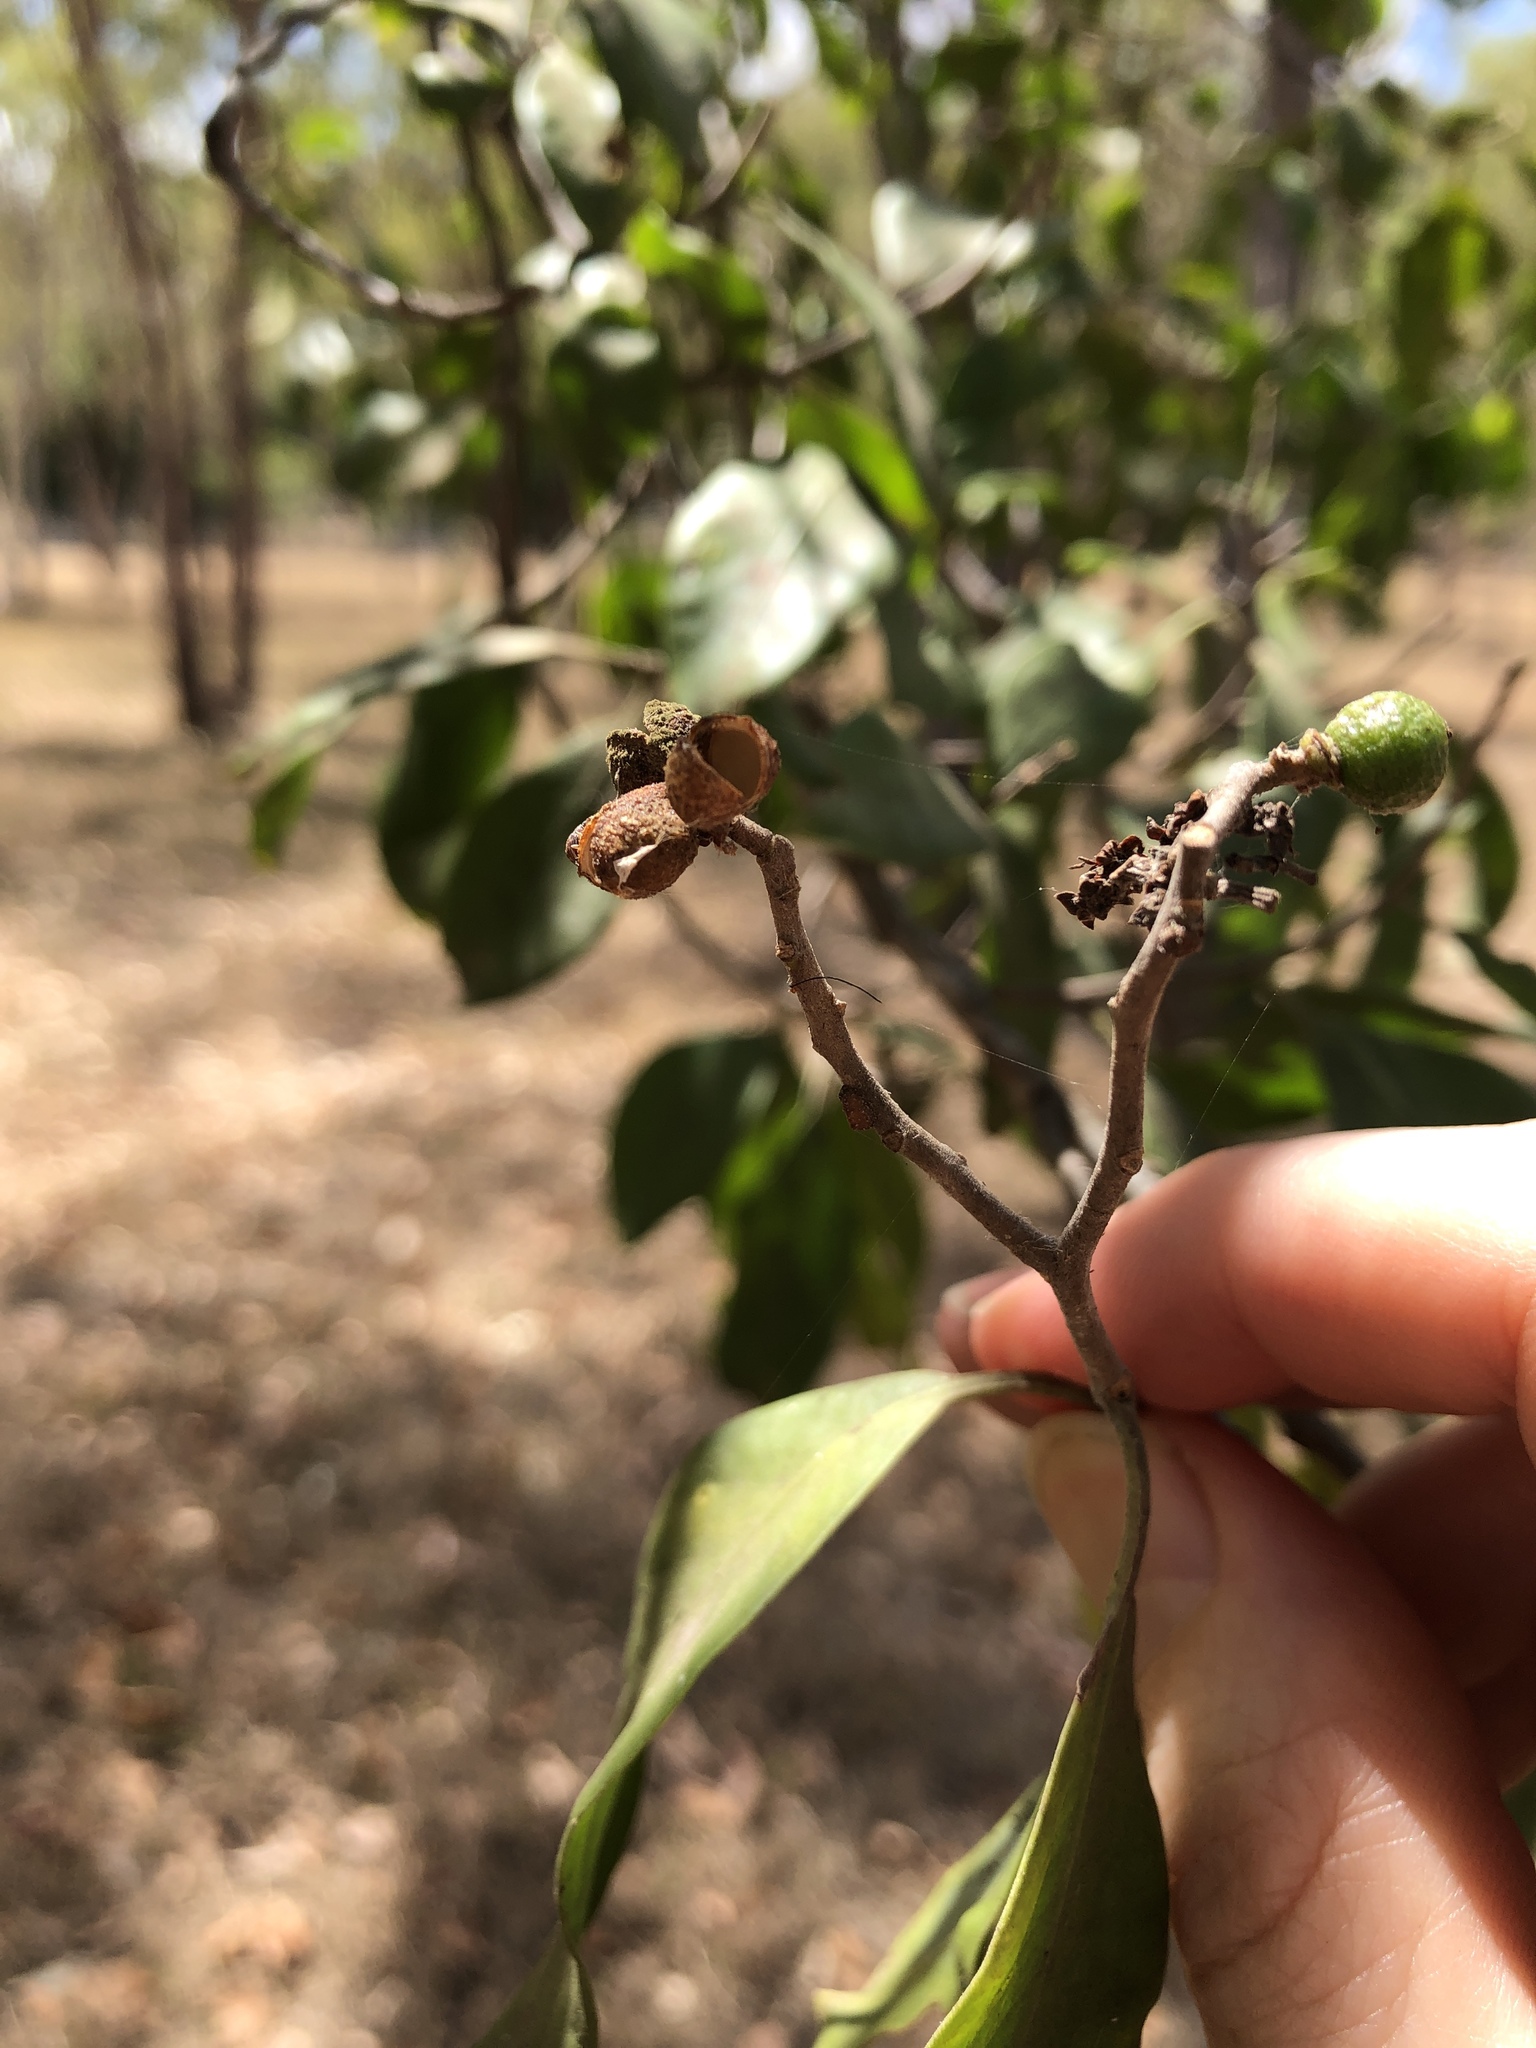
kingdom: Plantae
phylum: Tracheophyta
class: Magnoliopsida
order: Sapindales
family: Rutaceae
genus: Geijera
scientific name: Geijera salicifolia
